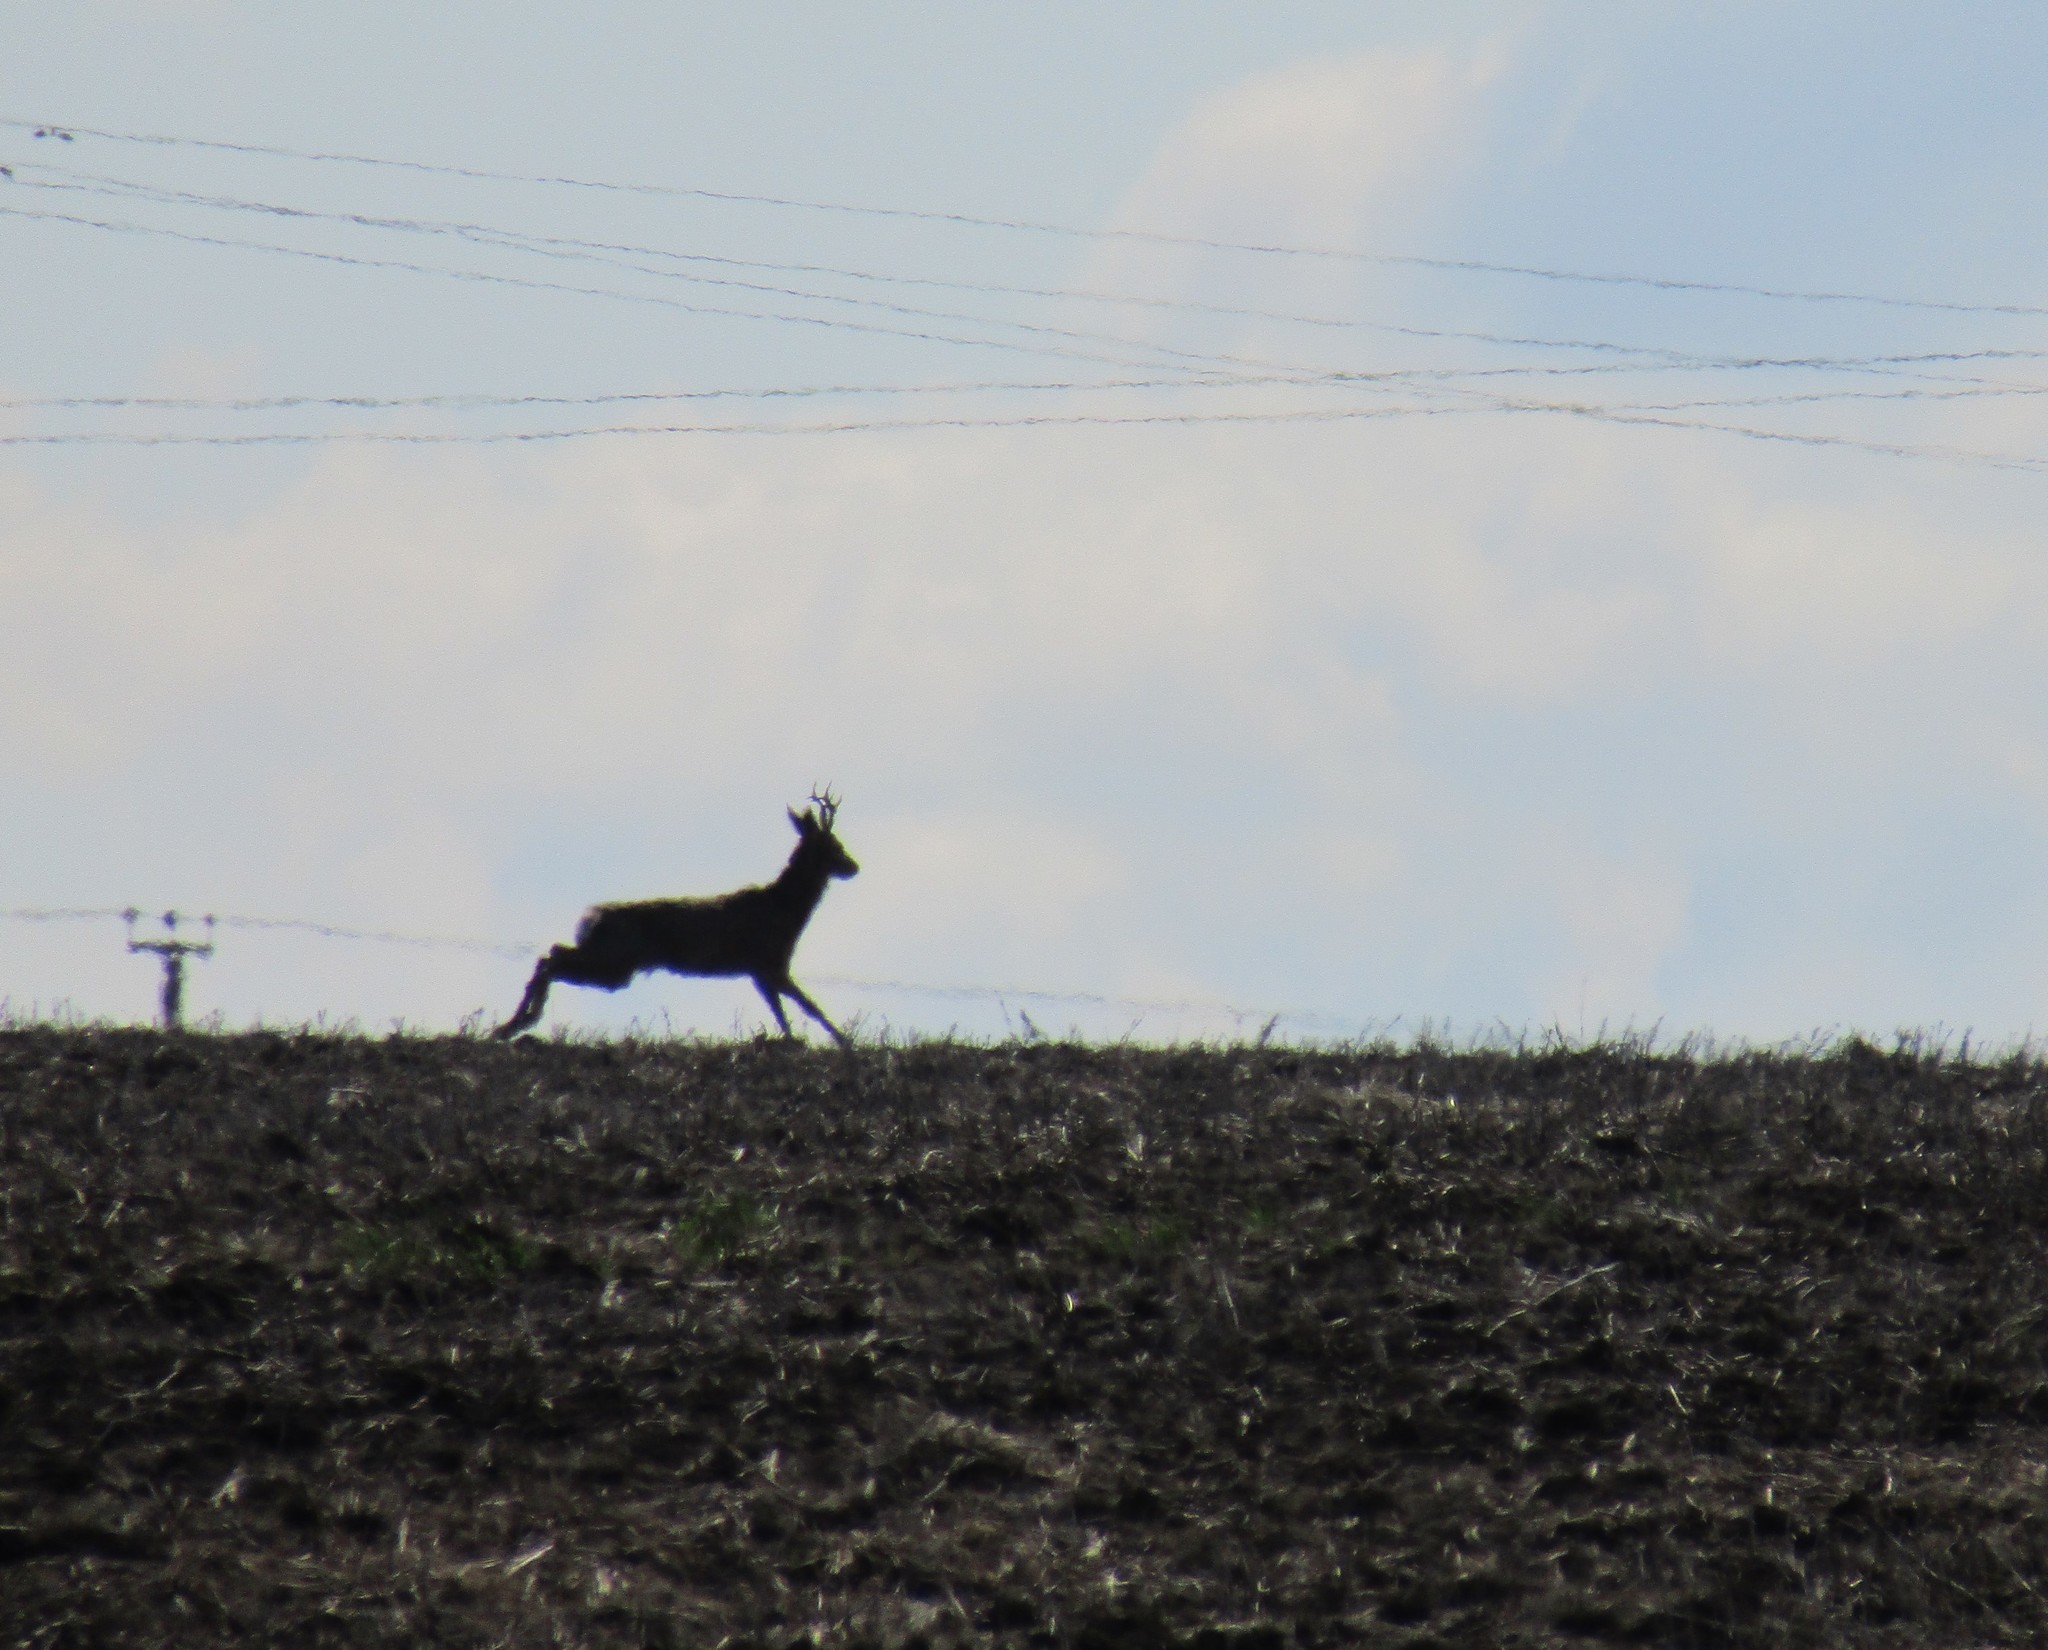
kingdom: Animalia
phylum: Chordata
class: Mammalia
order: Artiodactyla
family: Cervidae
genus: Capreolus
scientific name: Capreolus capreolus
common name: Western roe deer
